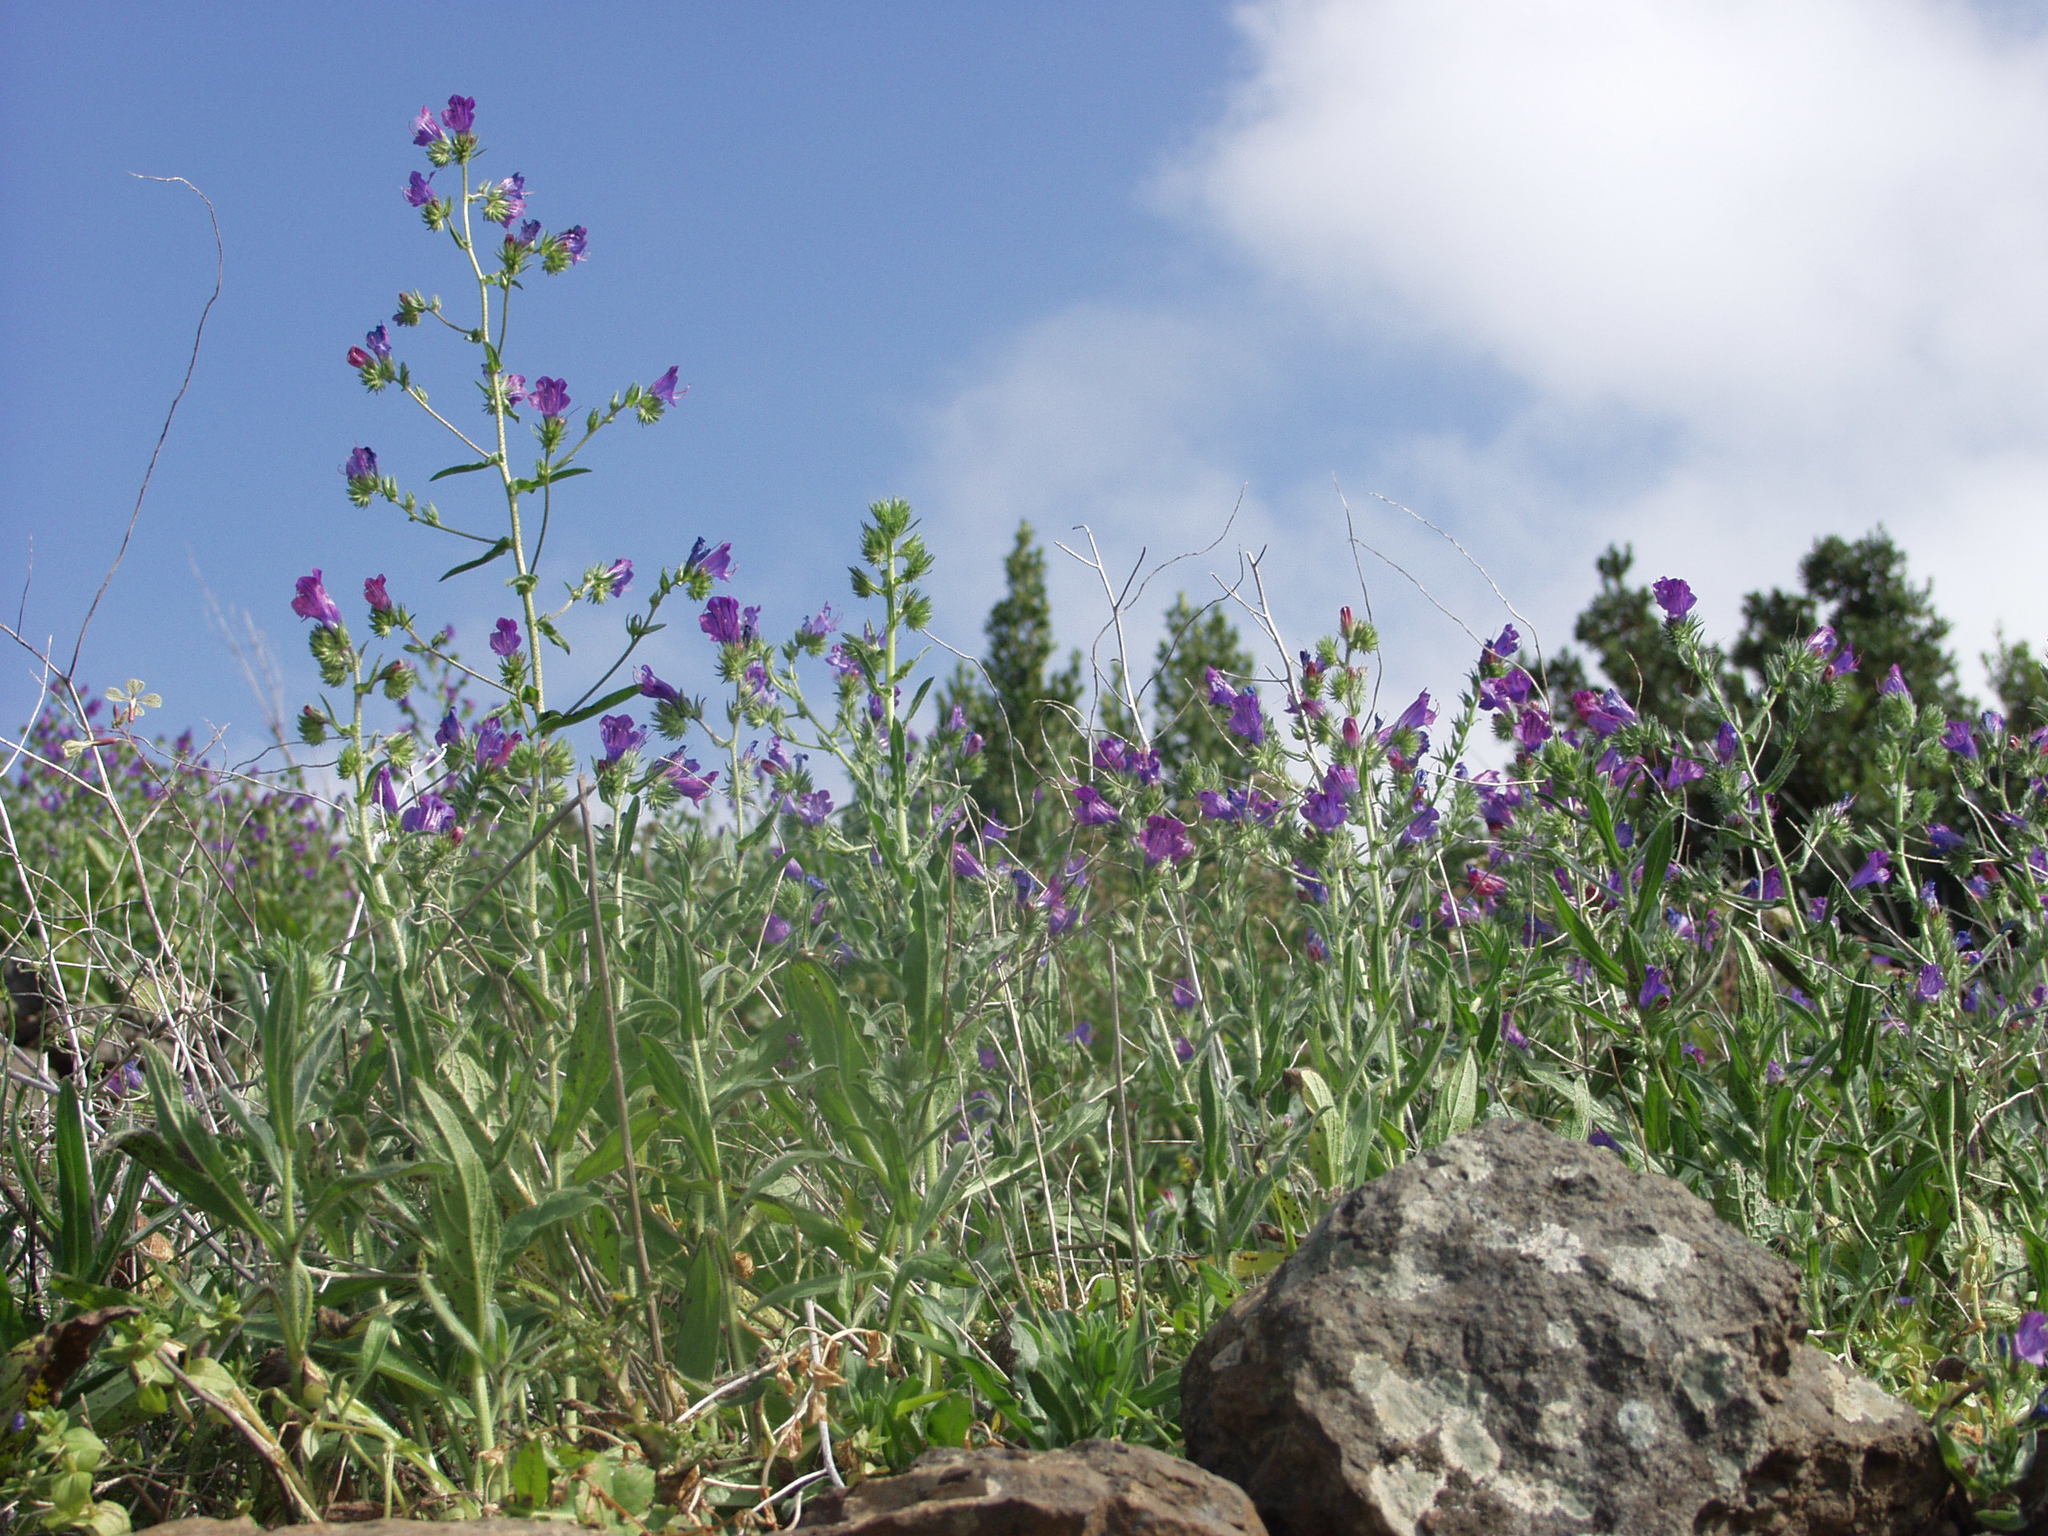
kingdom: Plantae
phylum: Tracheophyta
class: Magnoliopsida
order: Boraginales
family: Boraginaceae
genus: Echium
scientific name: Echium plantagineum
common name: Purple viper's-bugloss
